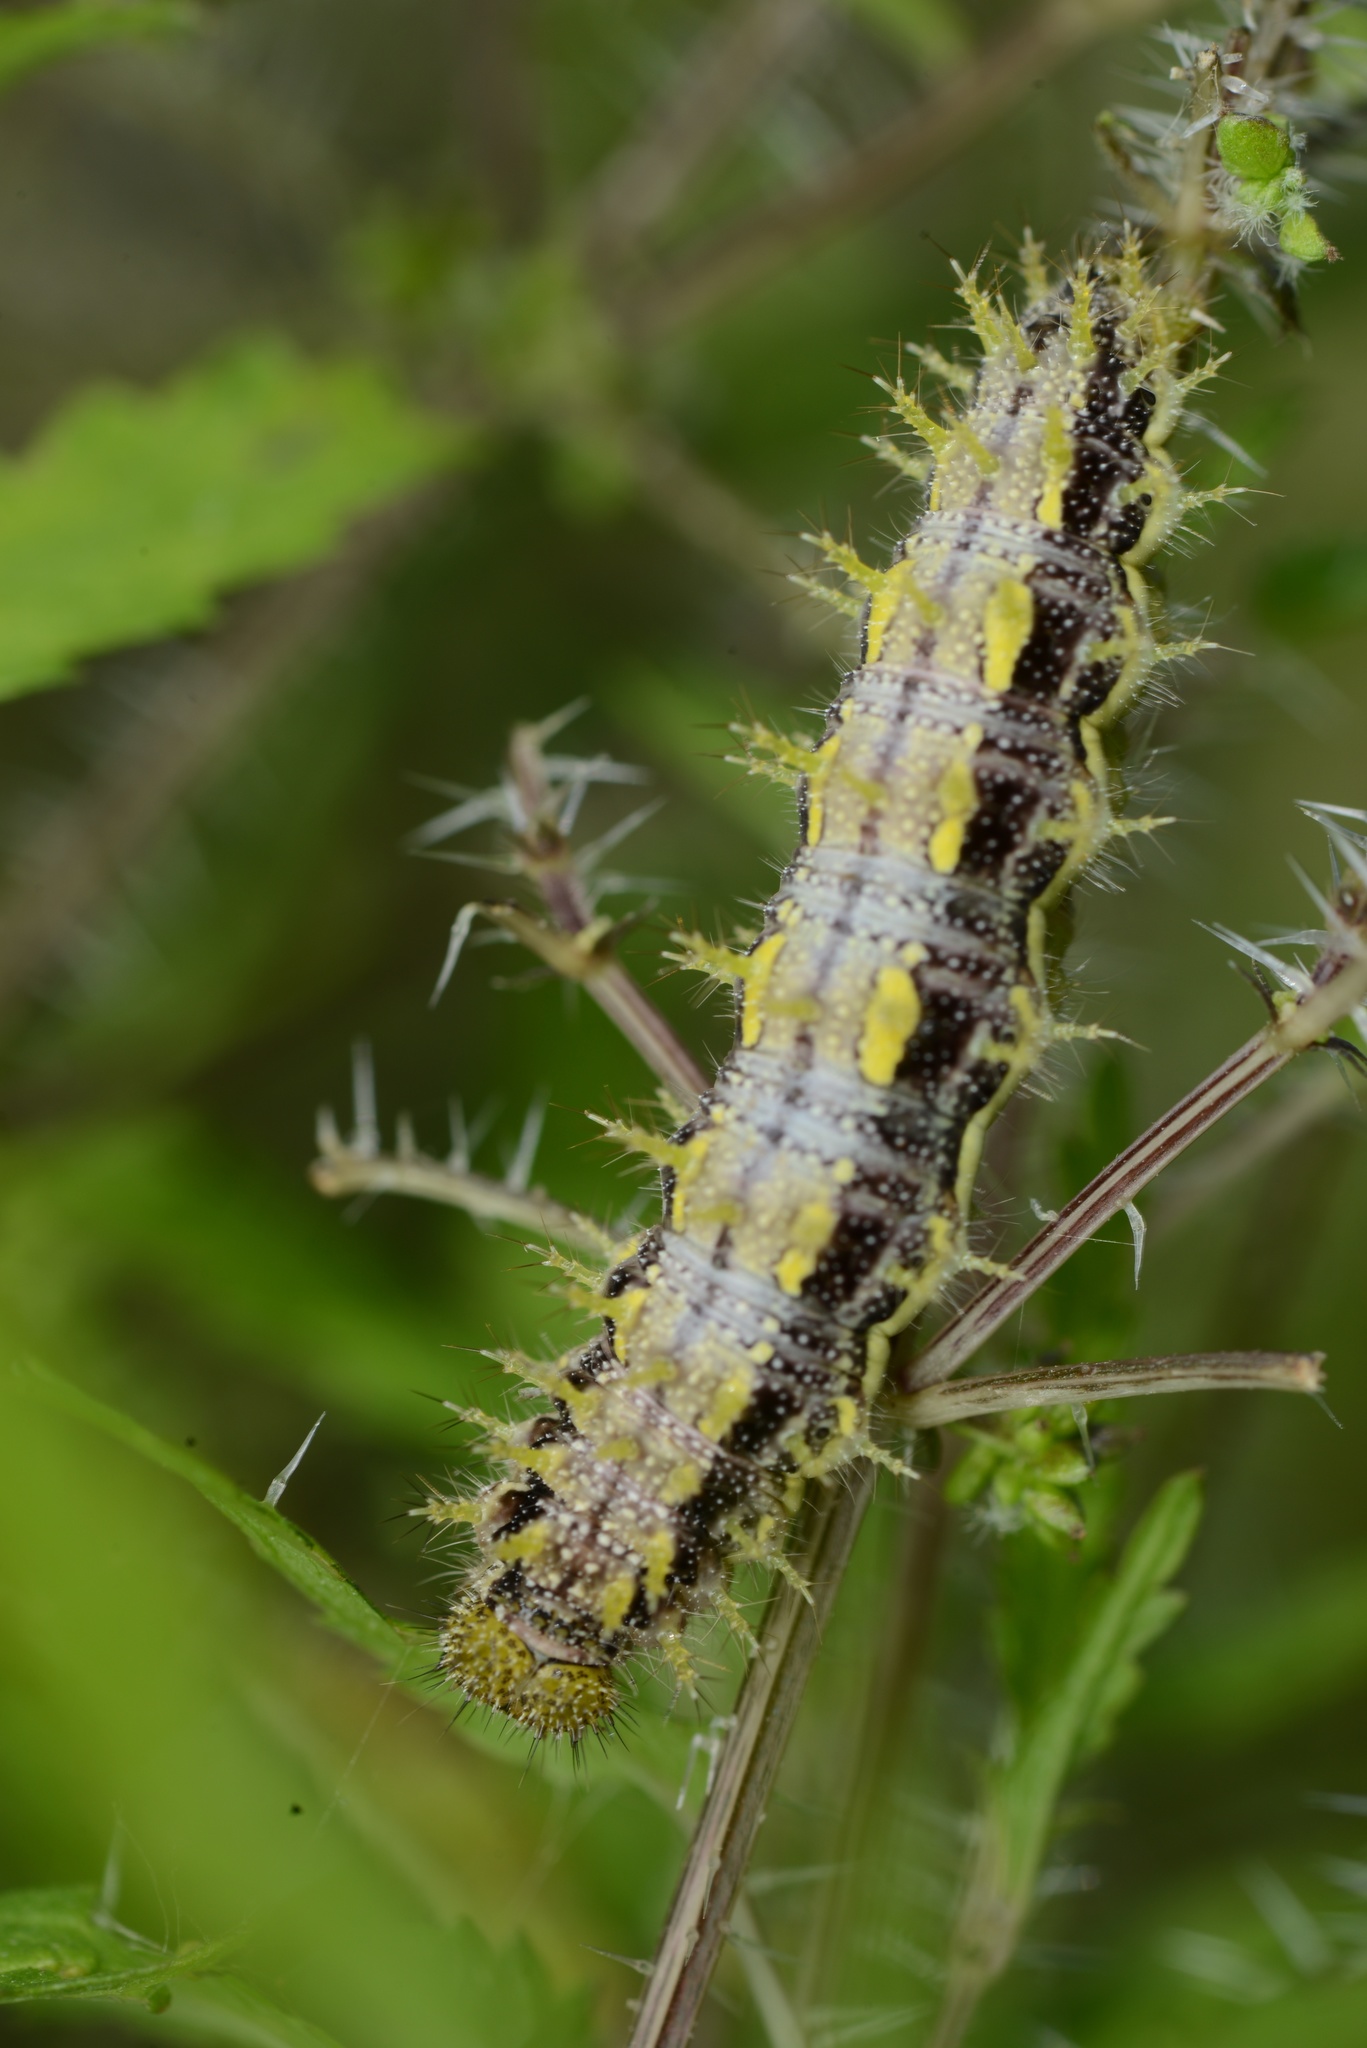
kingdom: Animalia
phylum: Arthropoda
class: Insecta
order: Lepidoptera
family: Nymphalidae
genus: Vanessa
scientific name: Vanessa itea
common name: Yellow admiral
